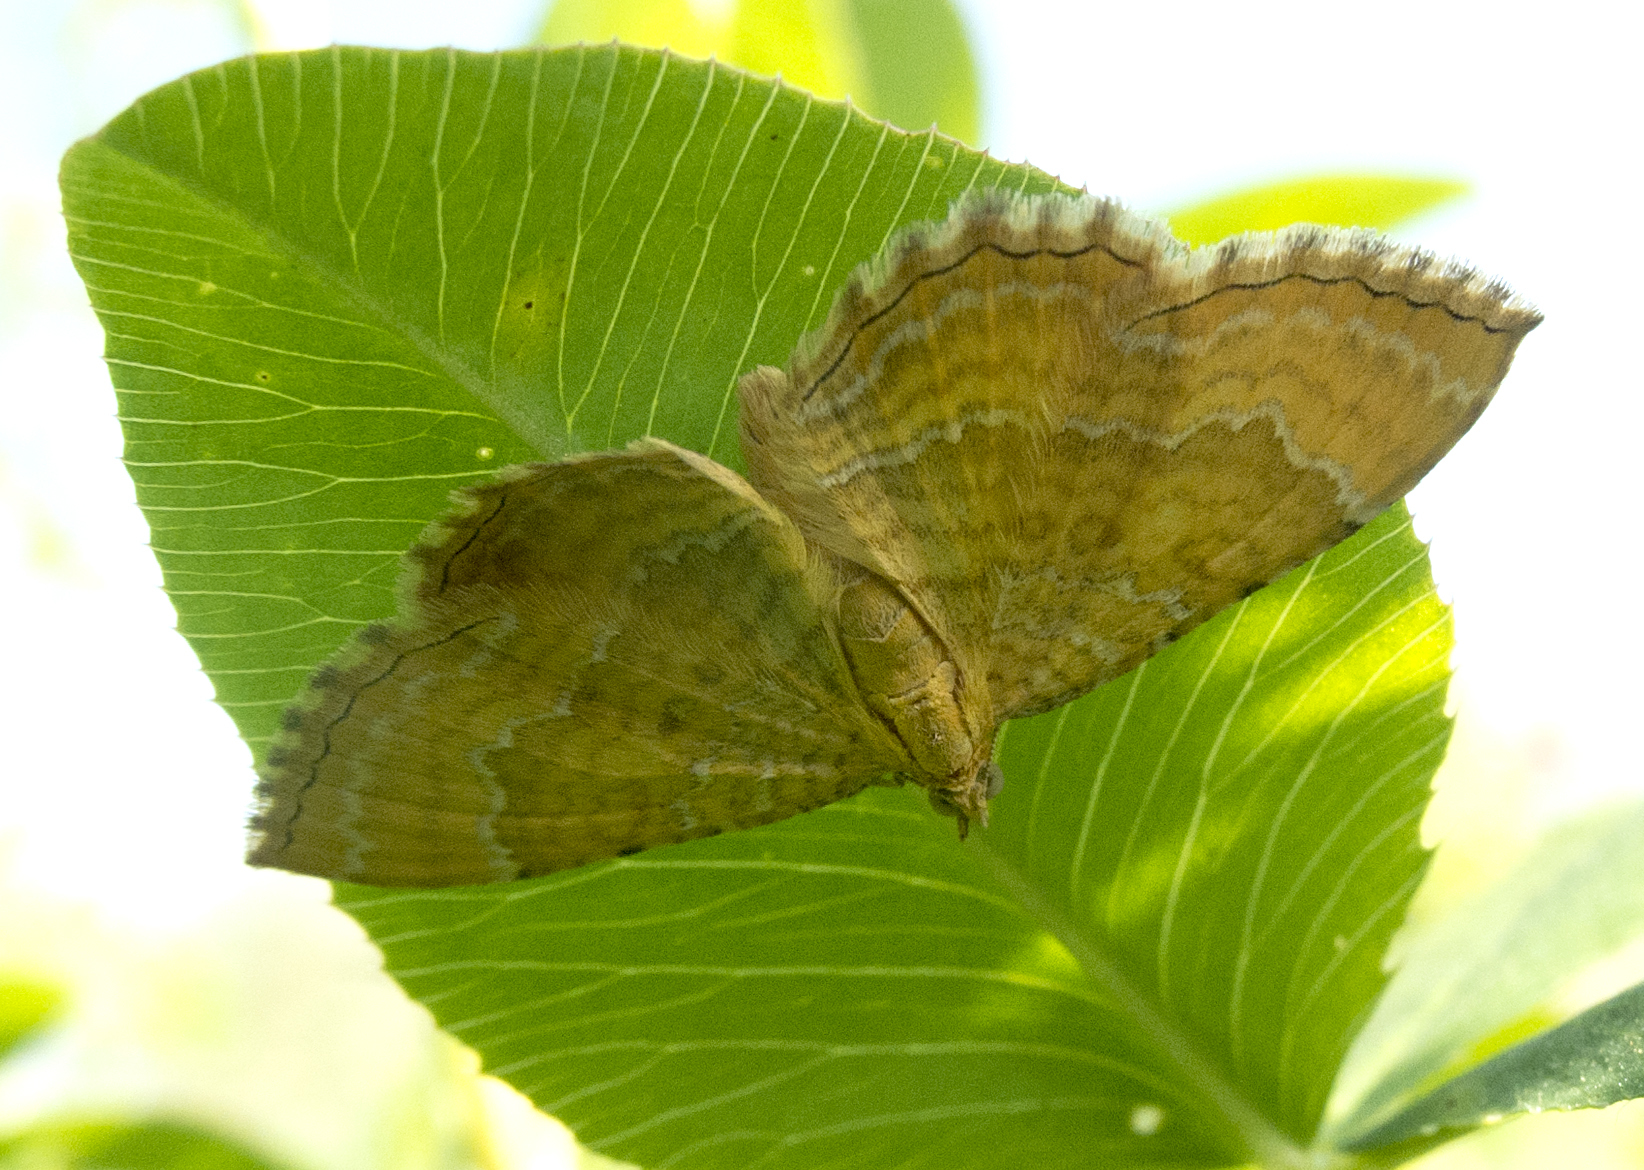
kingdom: Animalia
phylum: Arthropoda
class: Insecta
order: Lepidoptera
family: Geometridae
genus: Camptogramma
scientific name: Camptogramma bilineata
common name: Yellow shell
